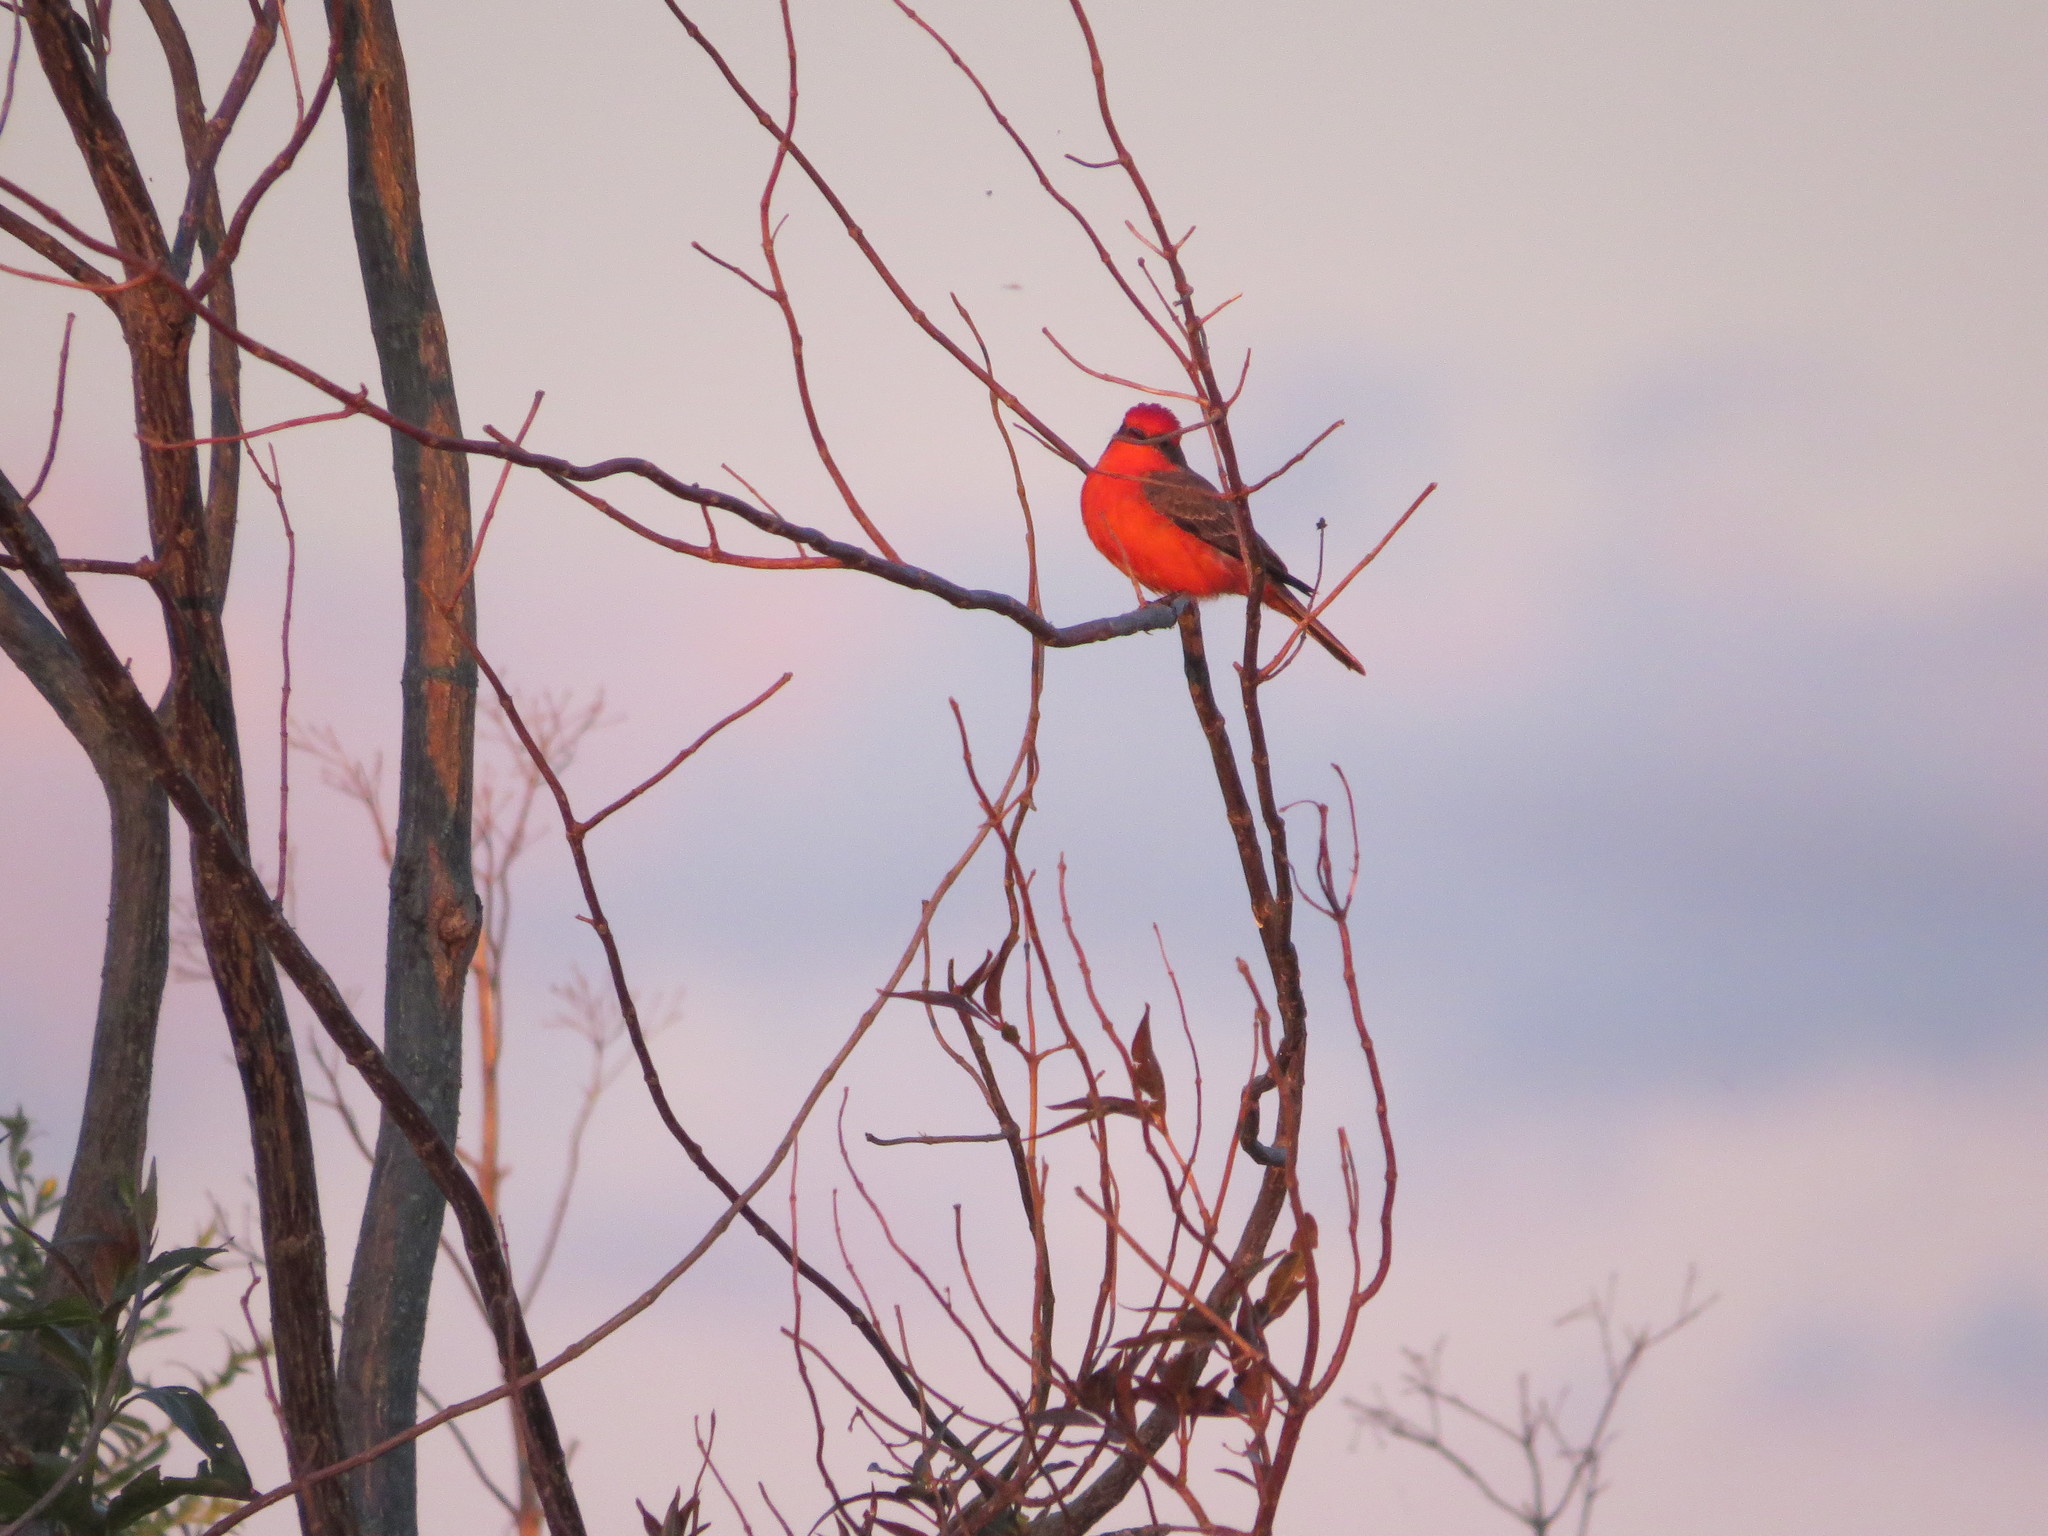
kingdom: Animalia
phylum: Chordata
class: Aves
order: Passeriformes
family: Tyrannidae
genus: Pyrocephalus
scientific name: Pyrocephalus rubinus
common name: Vermilion flycatcher
